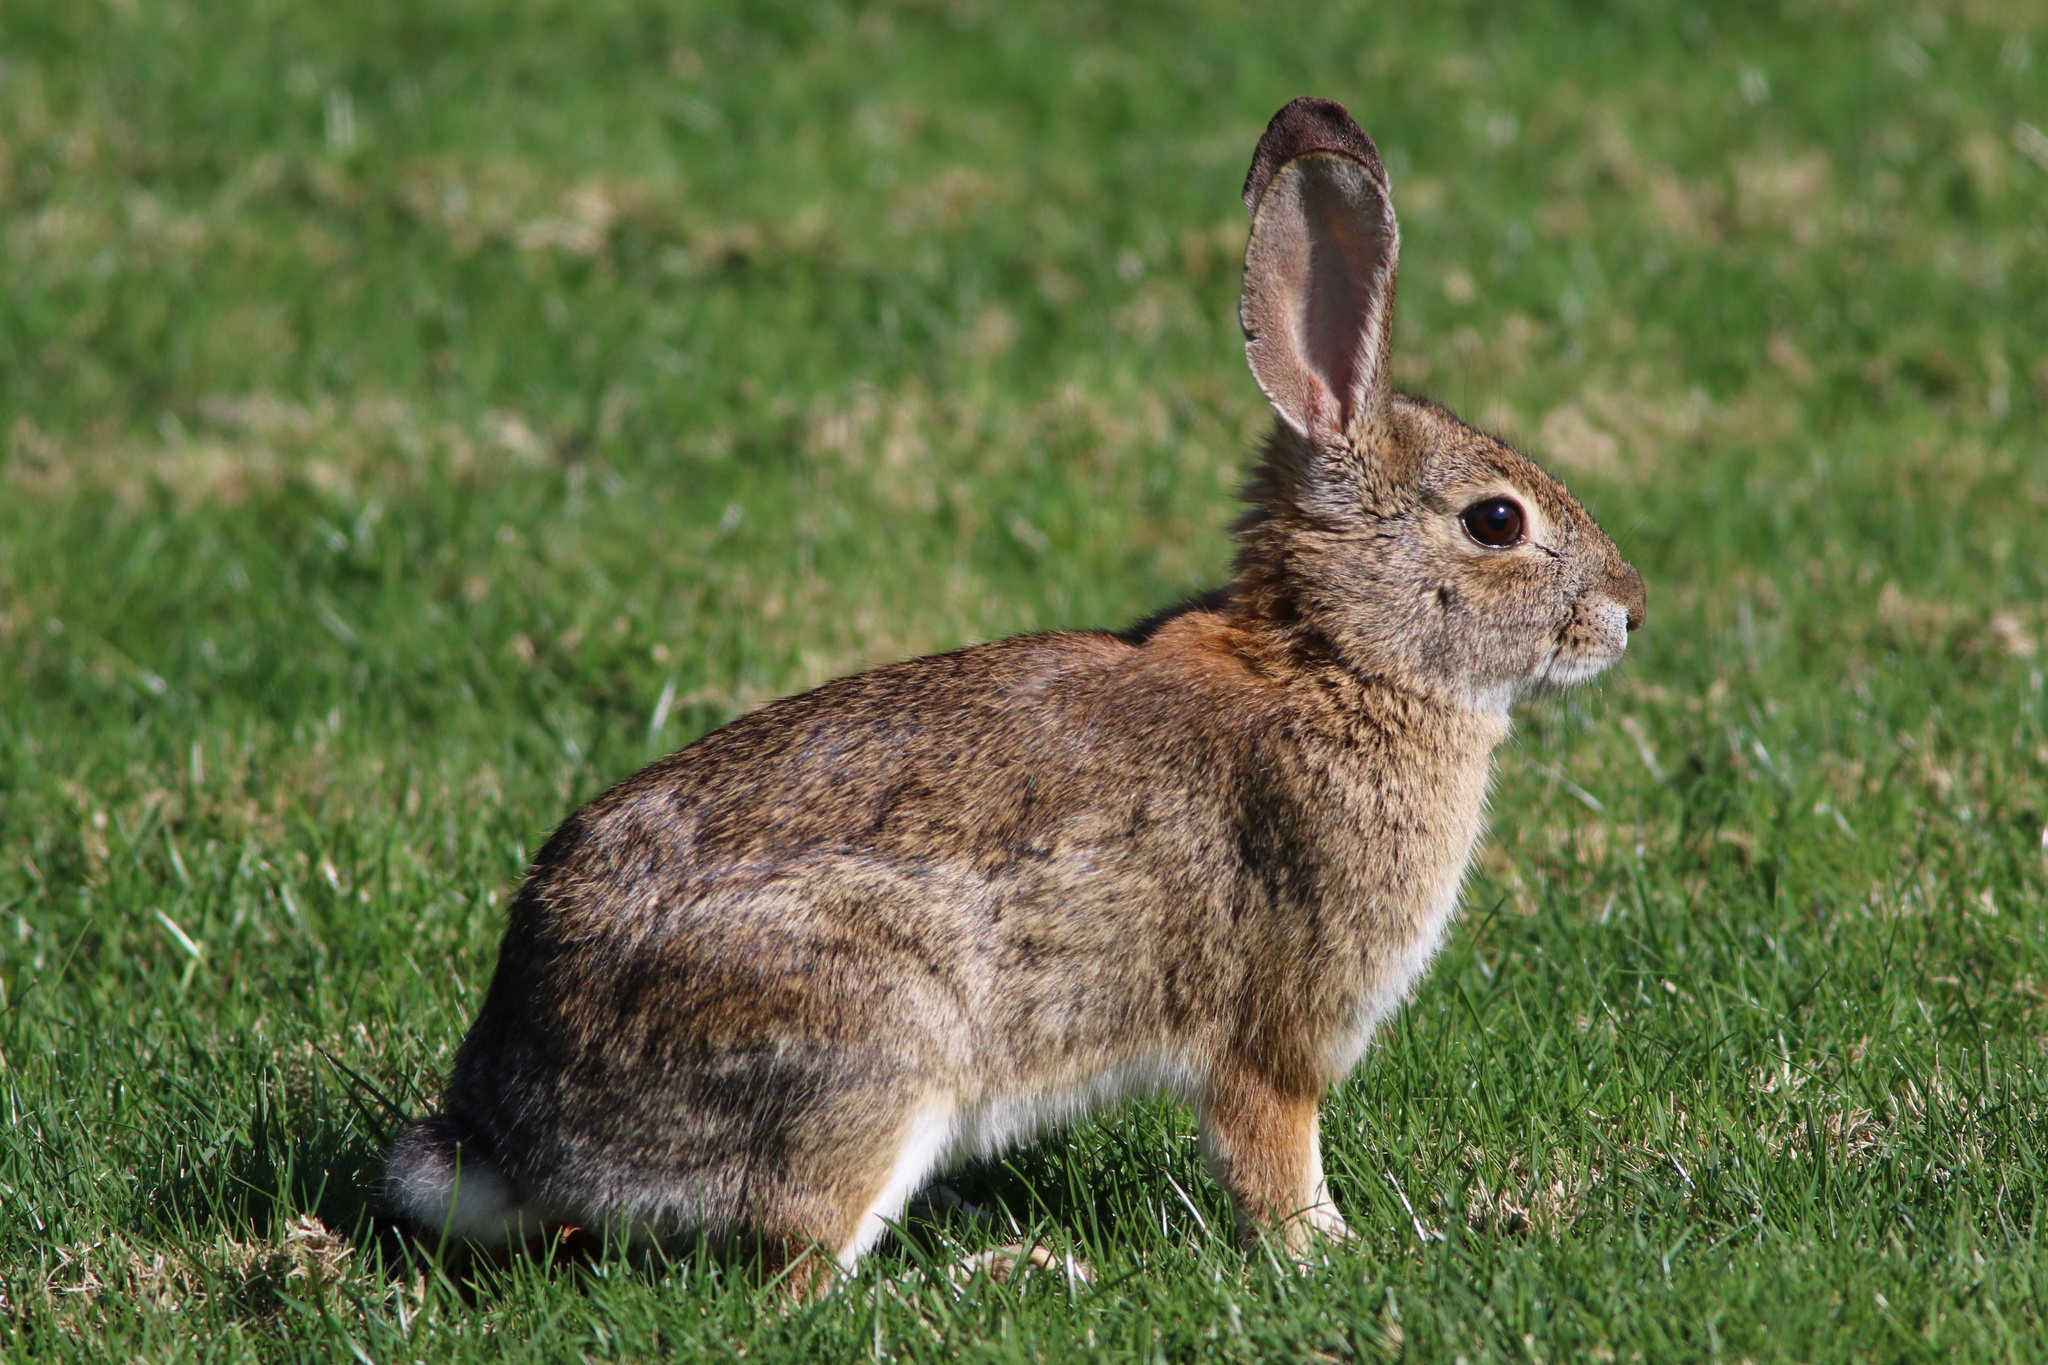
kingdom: Animalia
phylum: Chordata
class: Mammalia
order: Lagomorpha
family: Leporidae
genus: Sylvilagus
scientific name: Sylvilagus audubonii
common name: Desert cottontail
